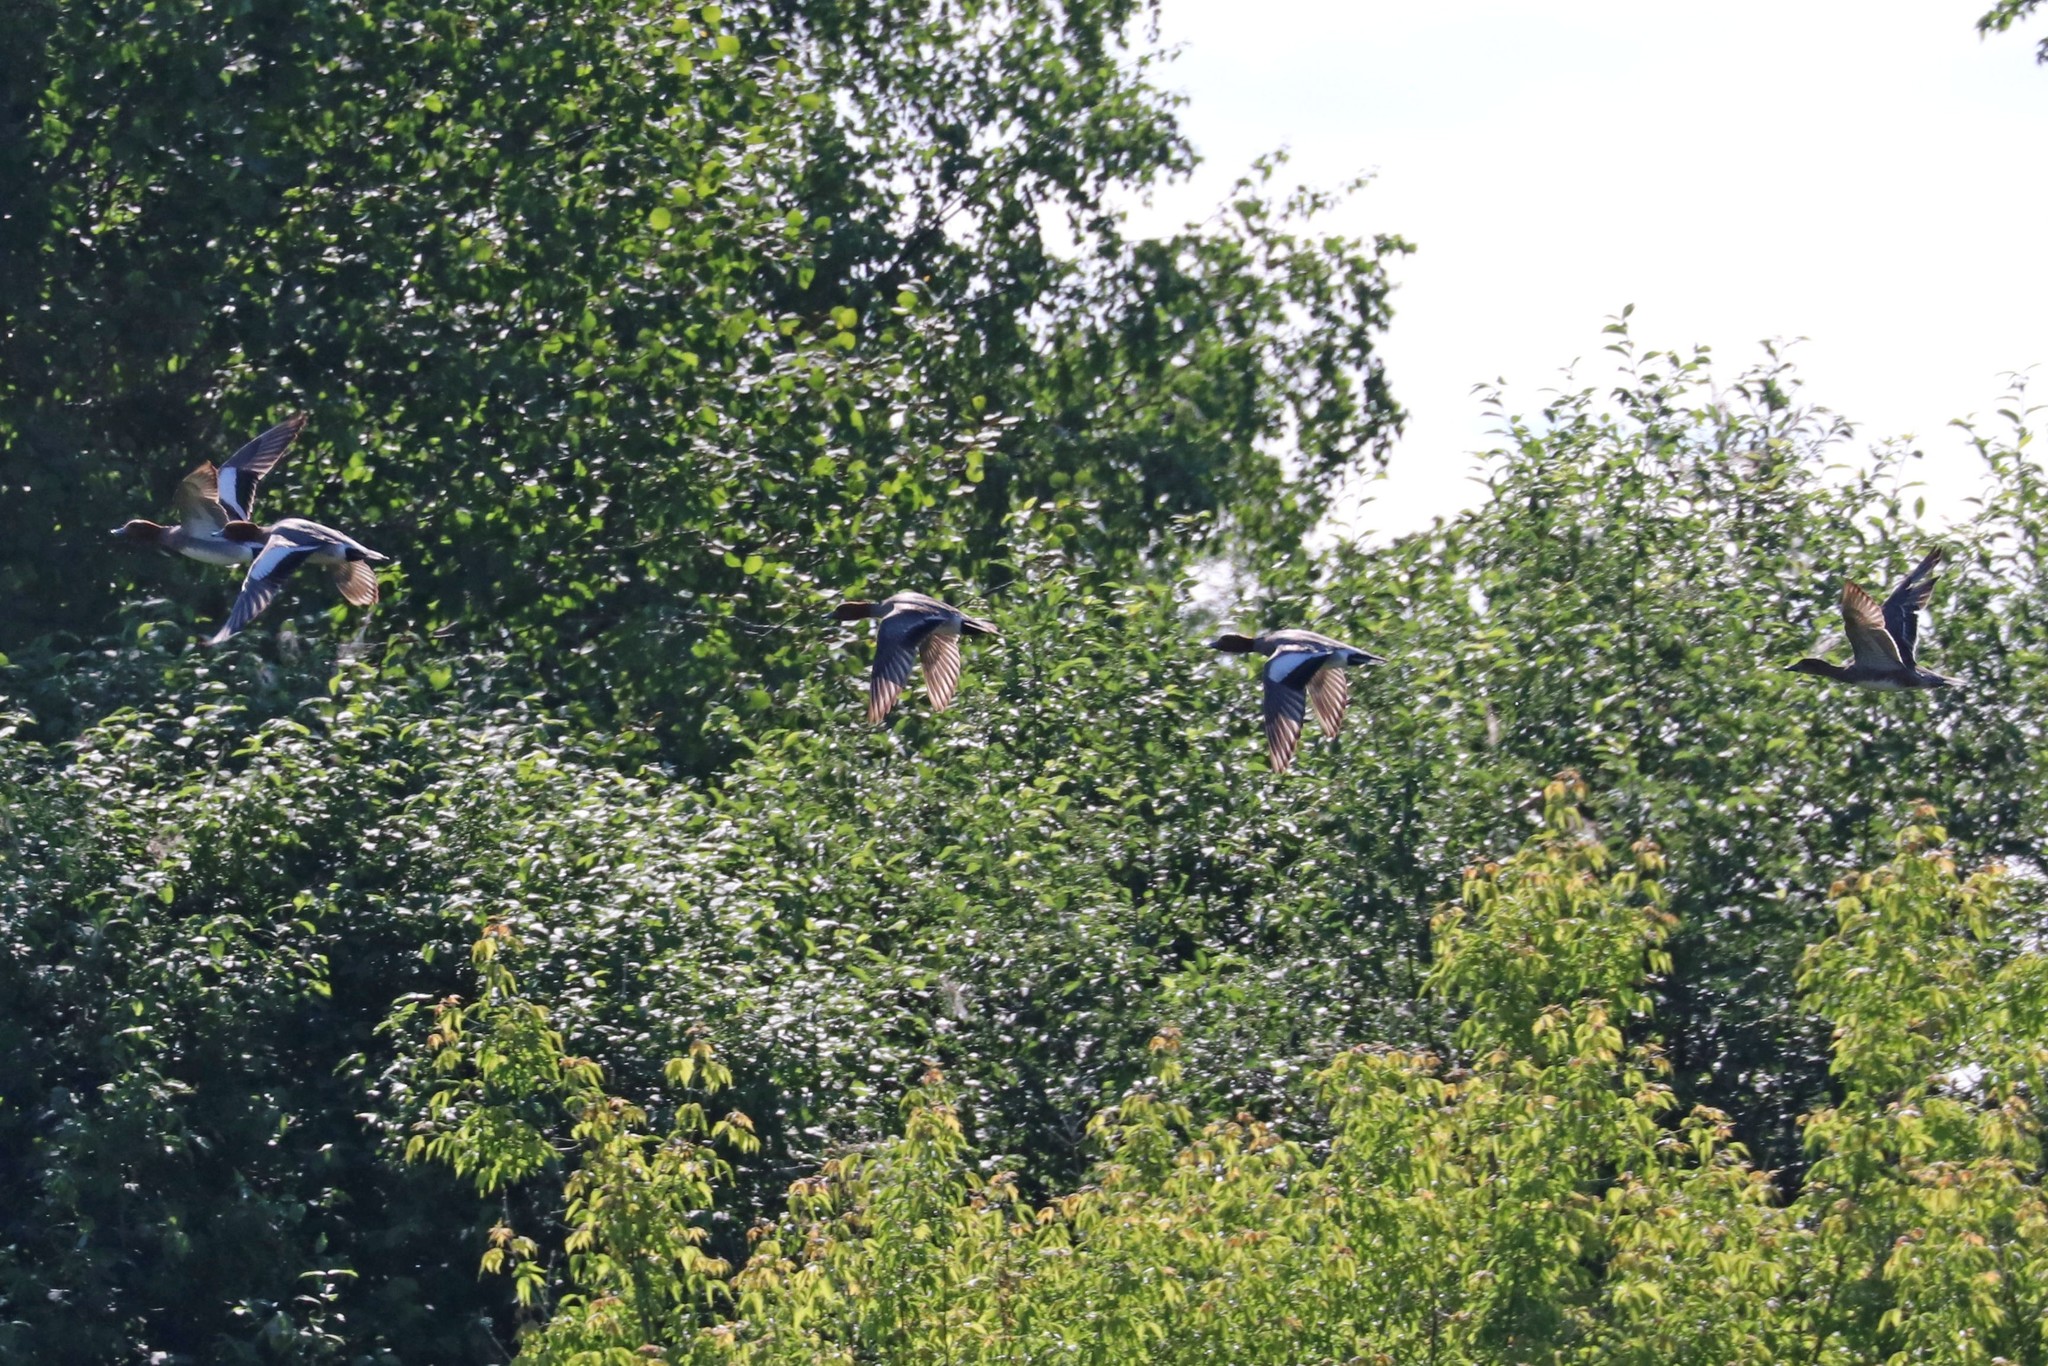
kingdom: Animalia
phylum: Chordata
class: Aves
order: Anseriformes
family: Anatidae
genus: Mareca
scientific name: Mareca penelope
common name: Eurasian wigeon
